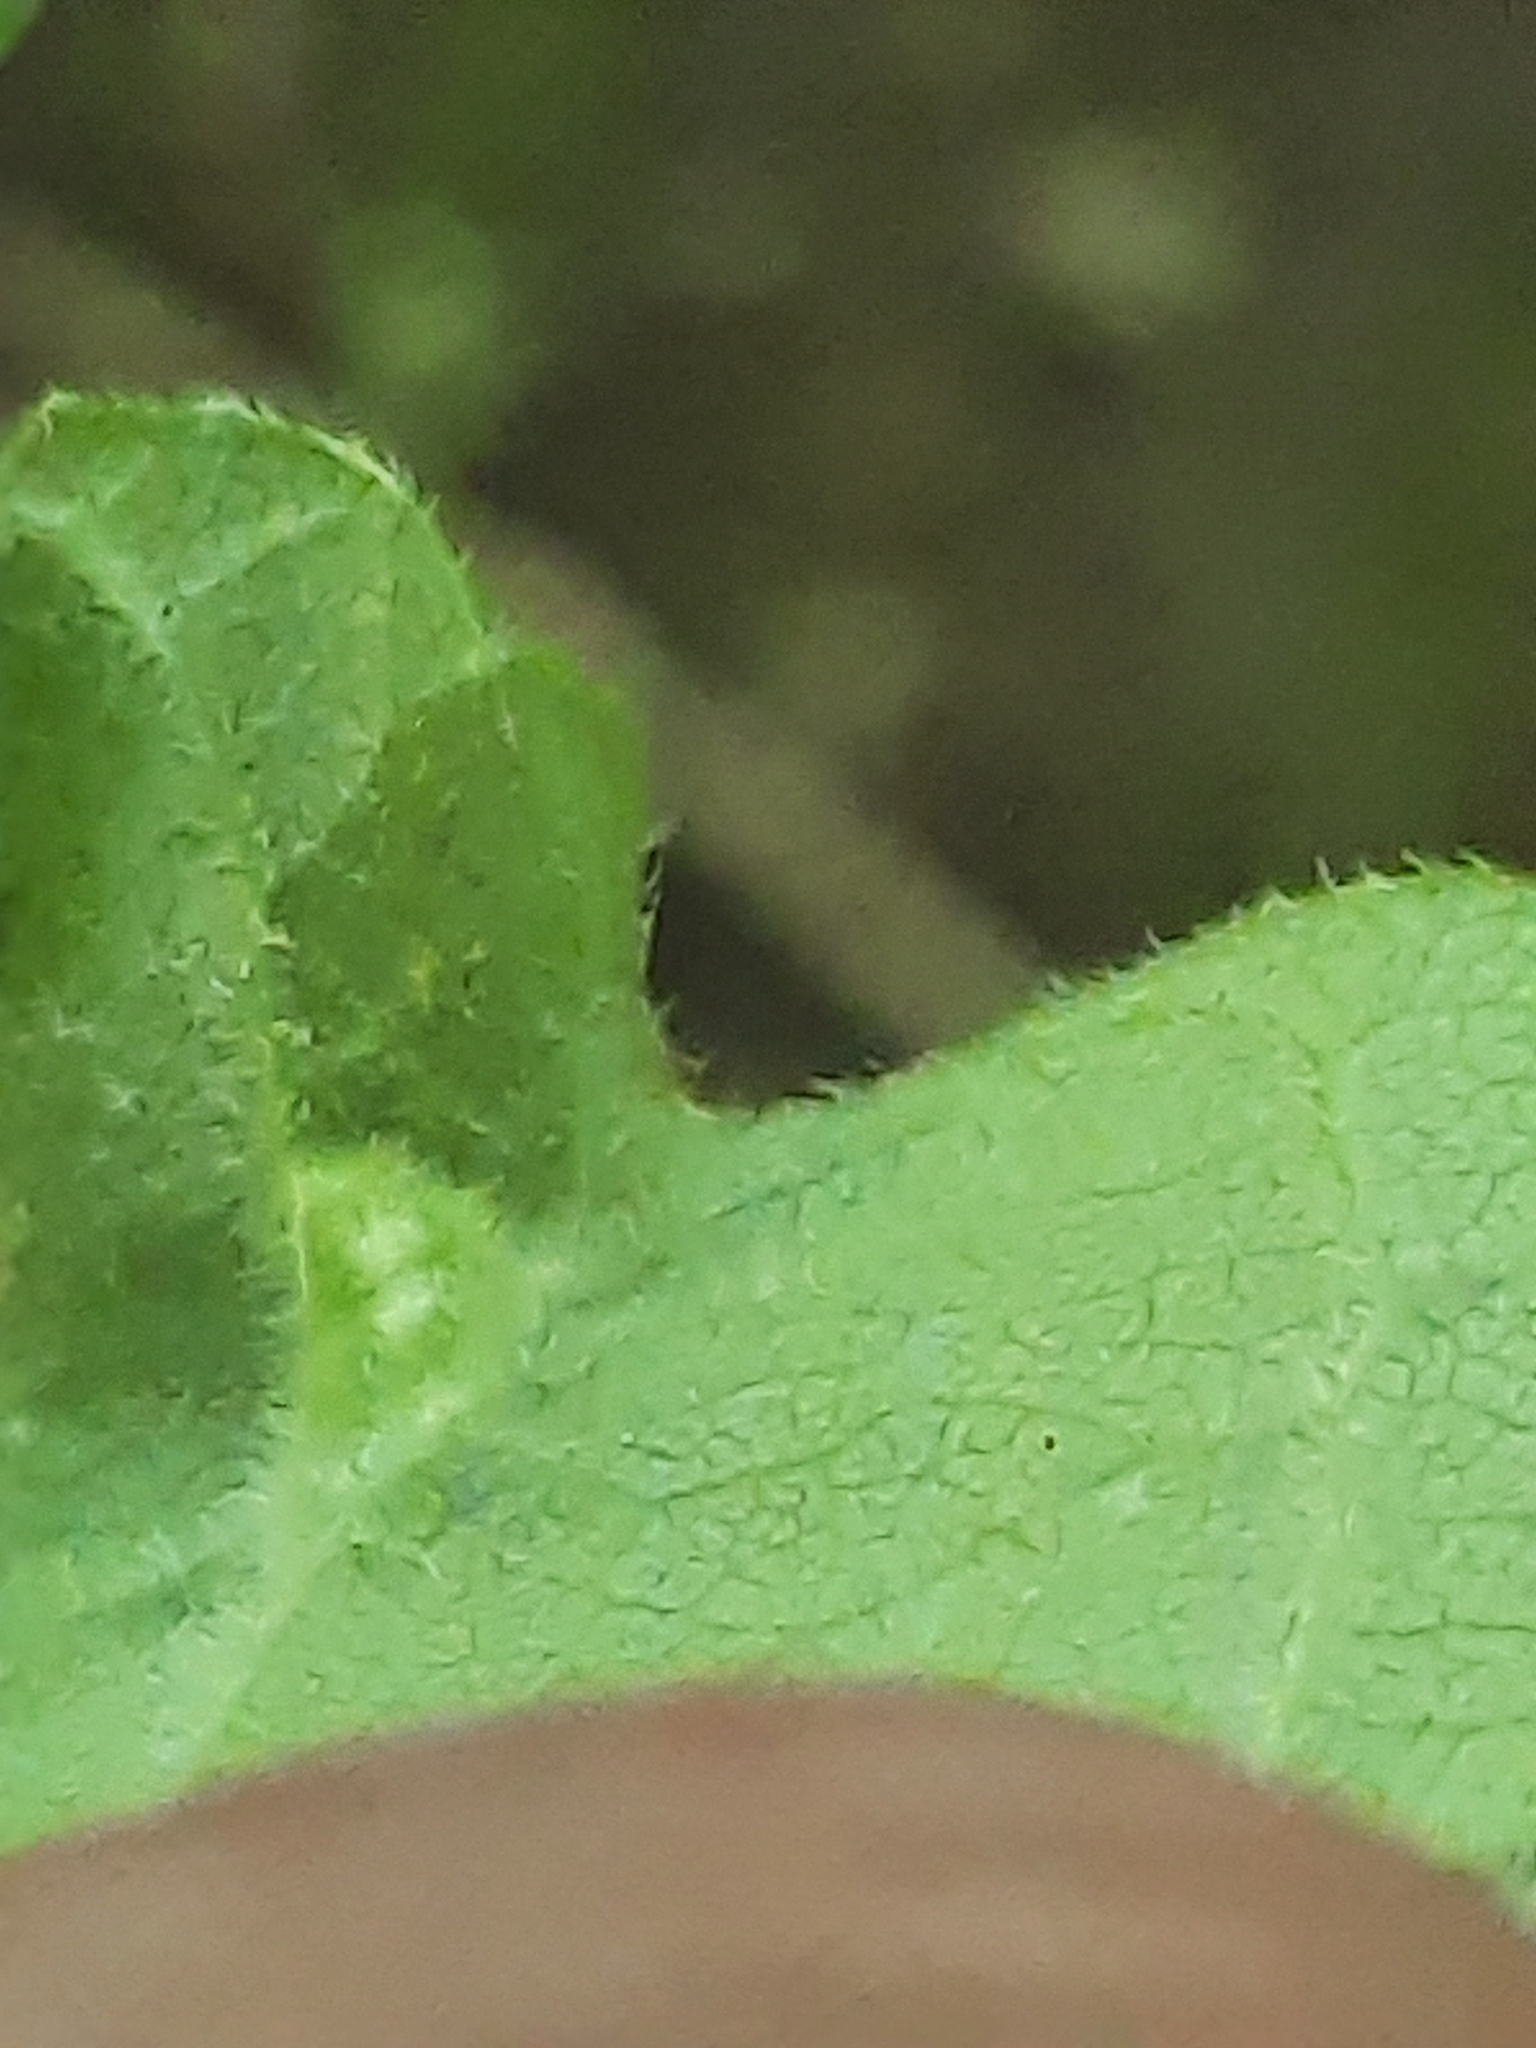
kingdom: Animalia
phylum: Arthropoda
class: Arachnida
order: Trombidiformes
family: Eriophyidae
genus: Aceria
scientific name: Aceria fraxinicola
